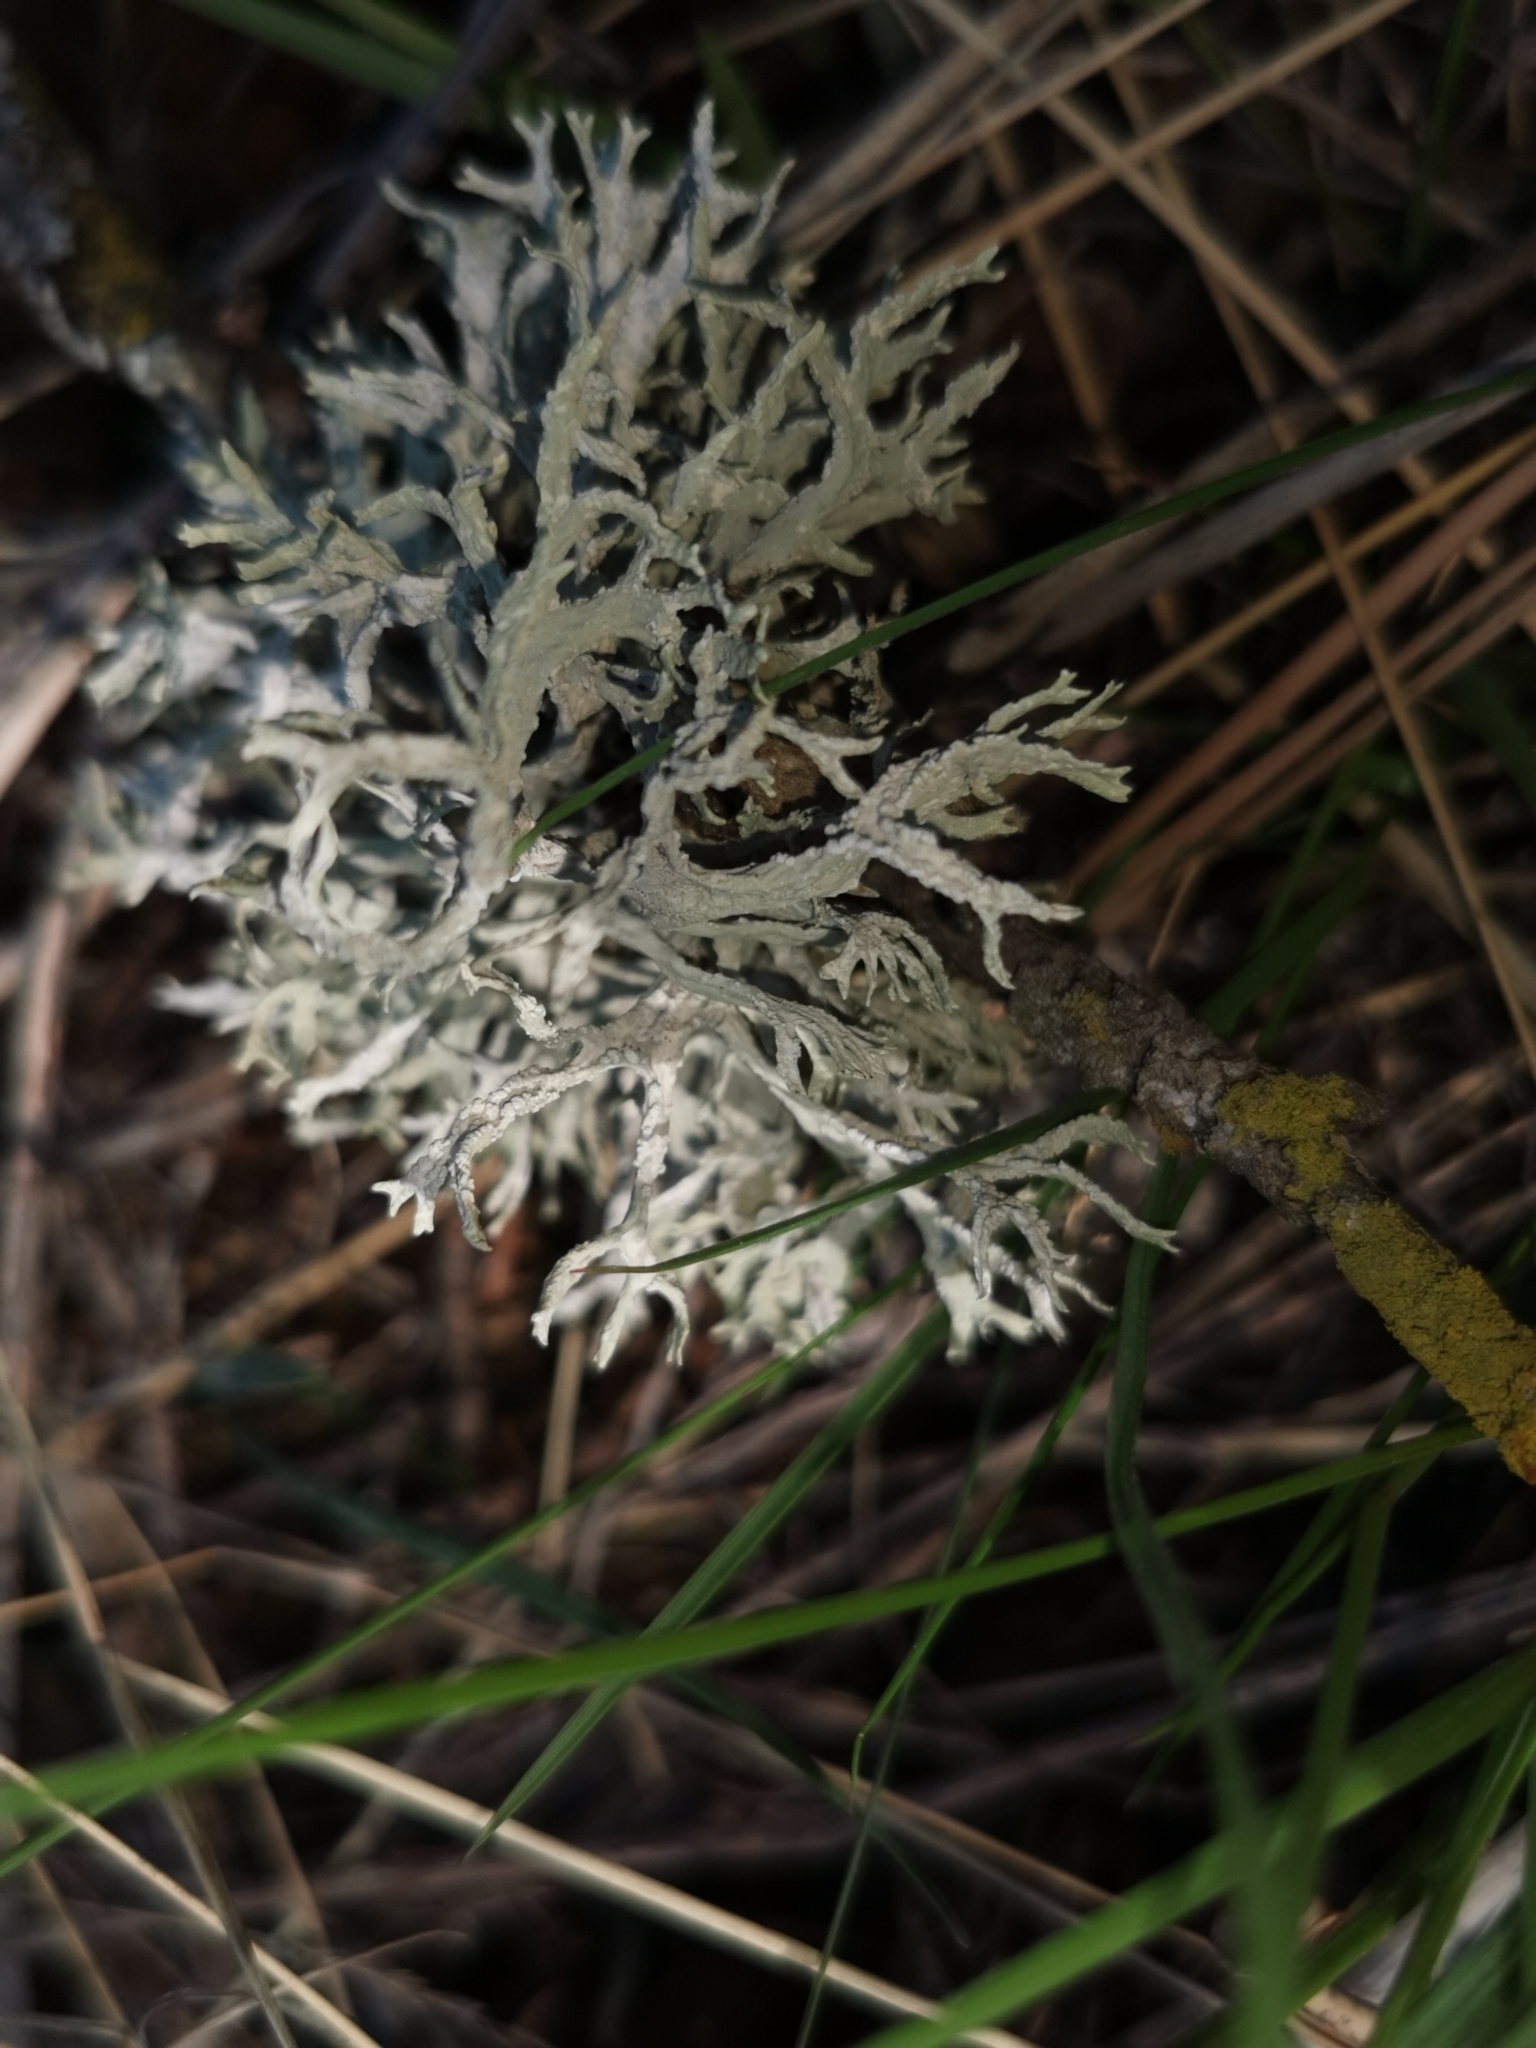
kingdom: Fungi
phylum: Ascomycota
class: Lecanoromycetes
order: Lecanorales
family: Parmeliaceae
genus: Evernia
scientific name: Evernia prunastri
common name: Oak moss
